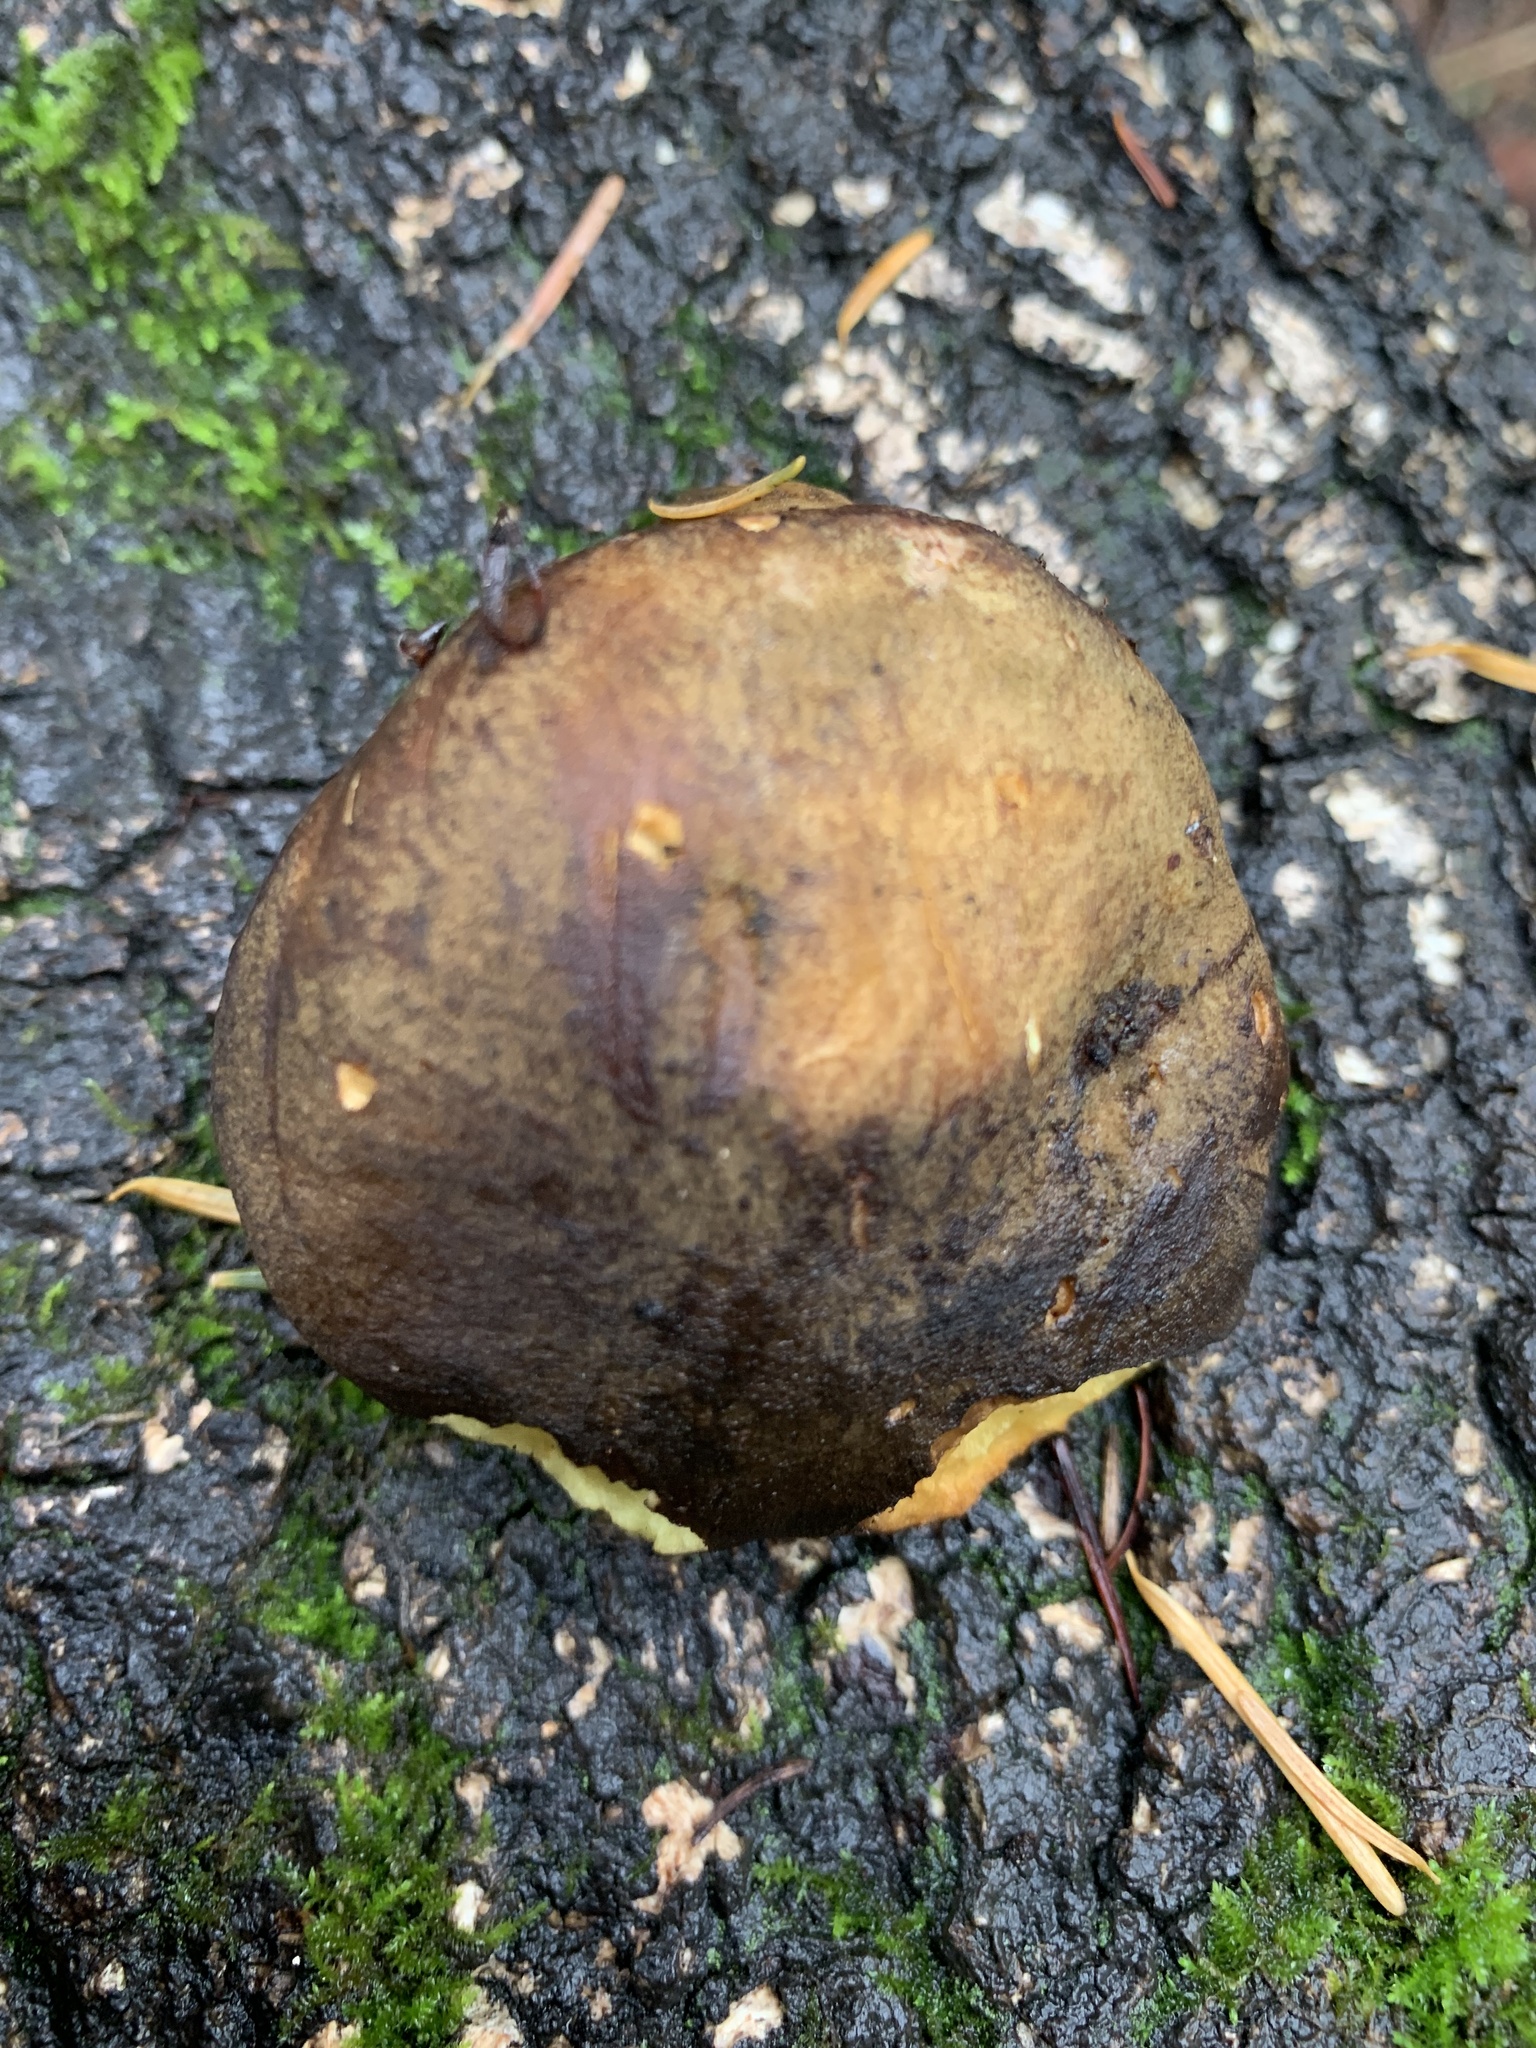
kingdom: Fungi
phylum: Basidiomycota
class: Agaricomycetes
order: Boletales
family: Boletaceae
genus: Phylloporus
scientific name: Phylloporus arenicola
